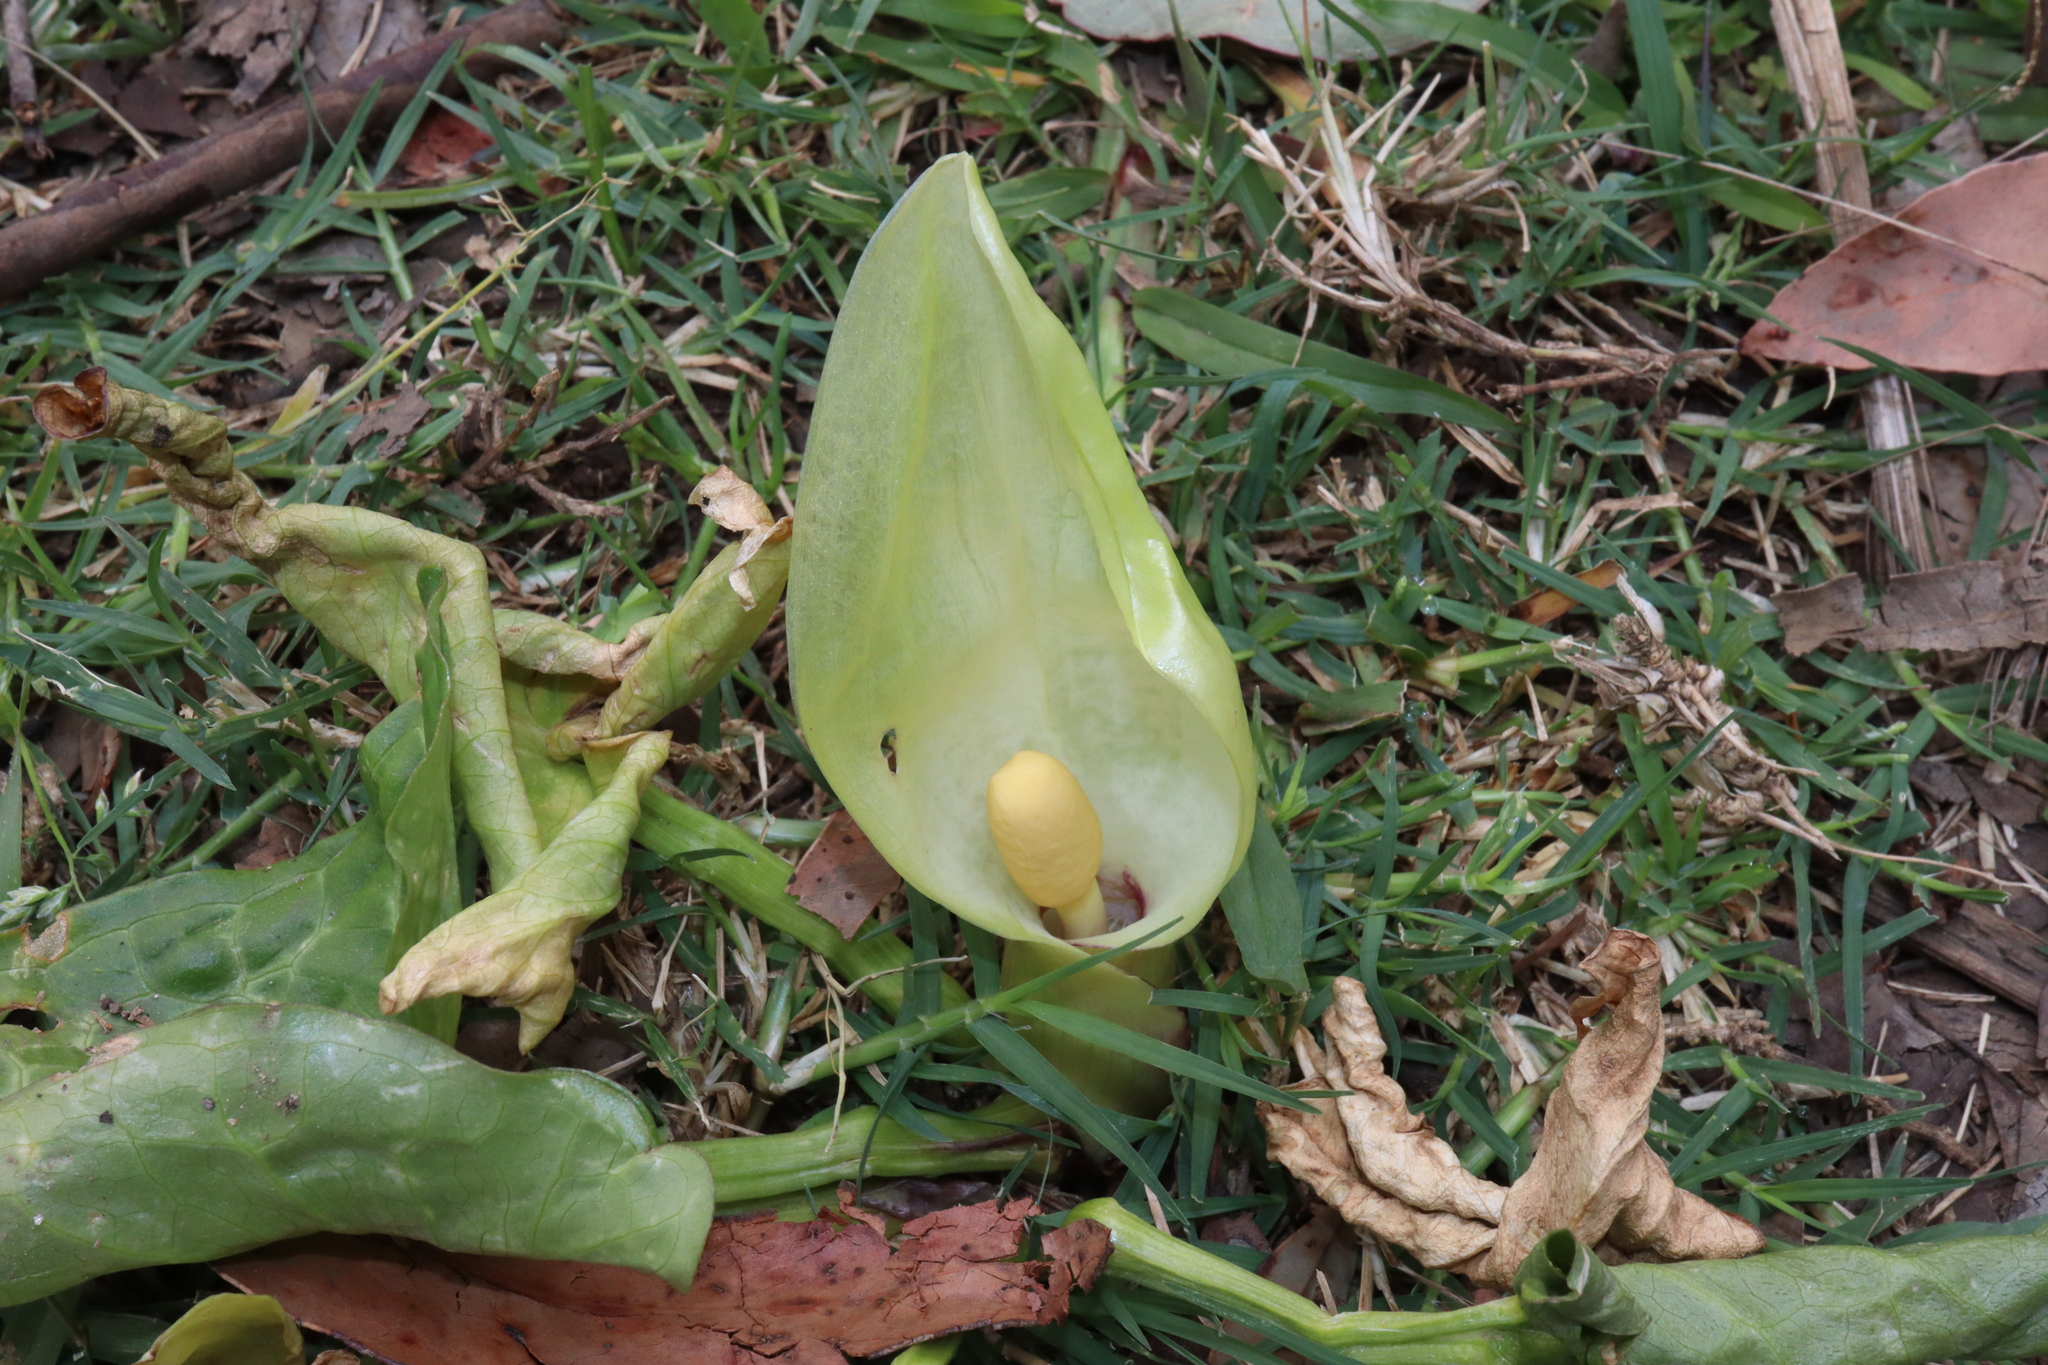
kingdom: Plantae
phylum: Tracheophyta
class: Liliopsida
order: Alismatales
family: Araceae
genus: Arum
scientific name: Arum italicum
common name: Italian lords-and-ladies
